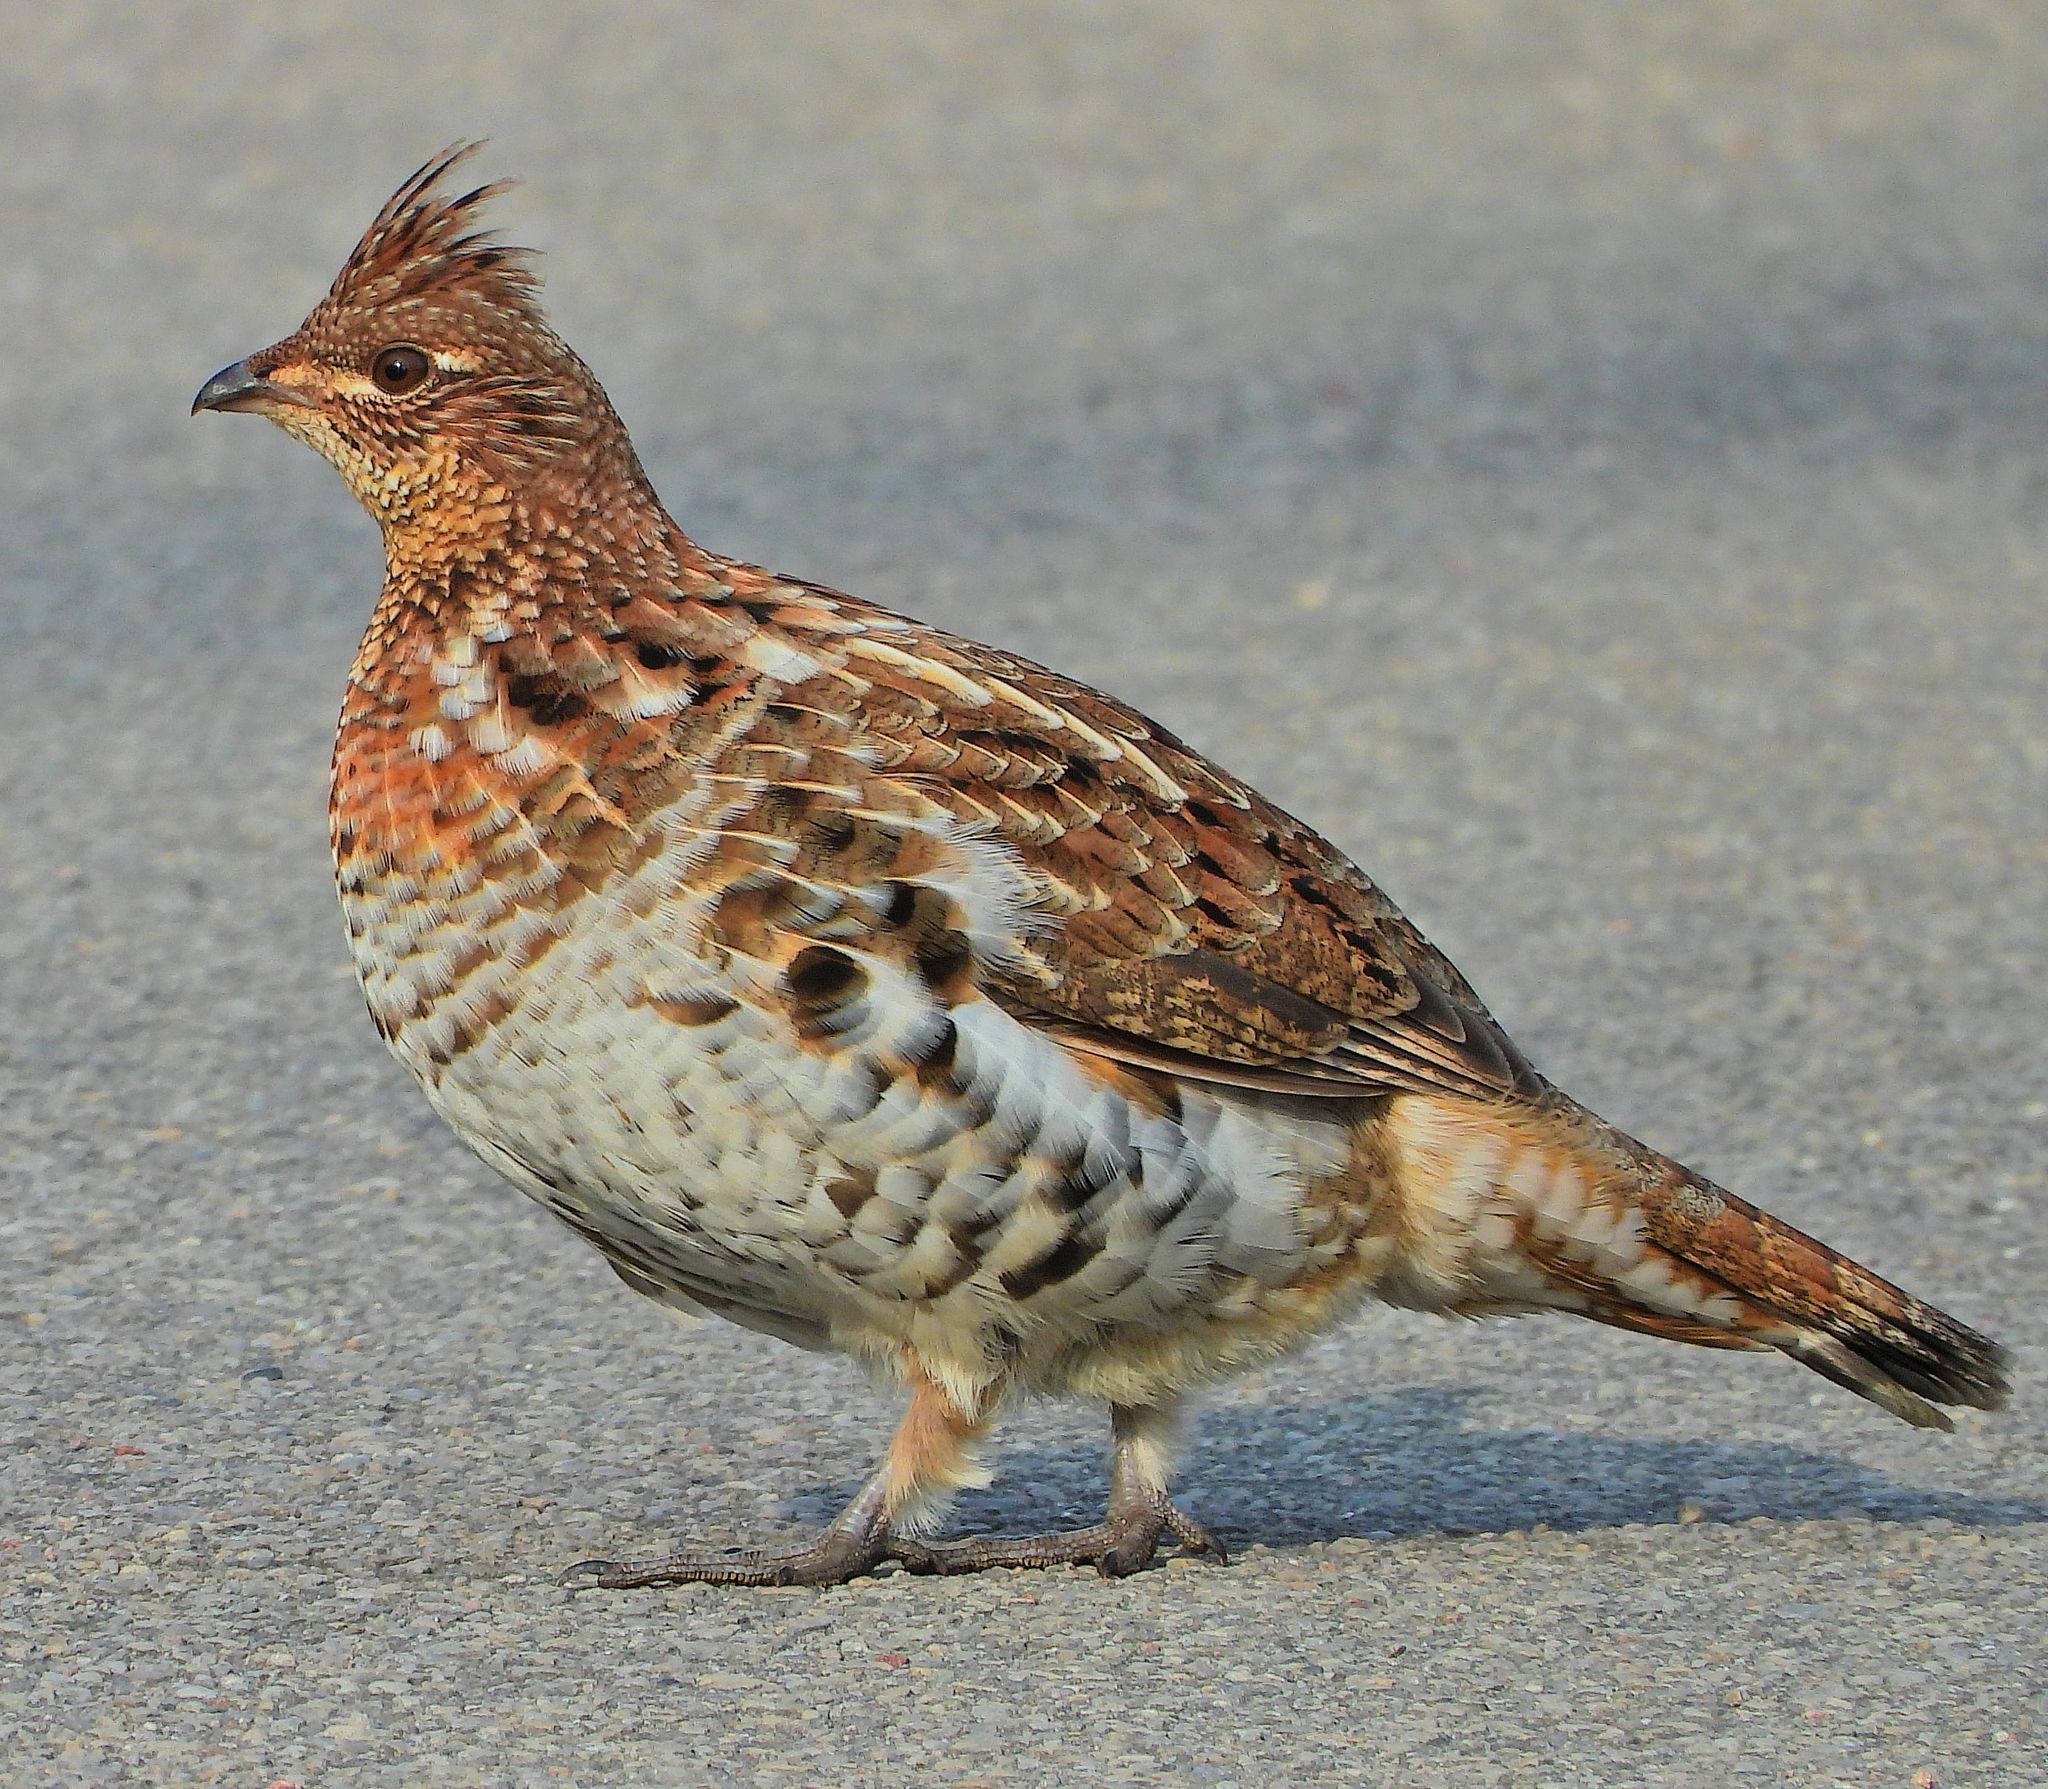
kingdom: Animalia
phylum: Chordata
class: Aves
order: Galliformes
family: Phasianidae
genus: Bonasa
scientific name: Bonasa umbellus
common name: Ruffed grouse
